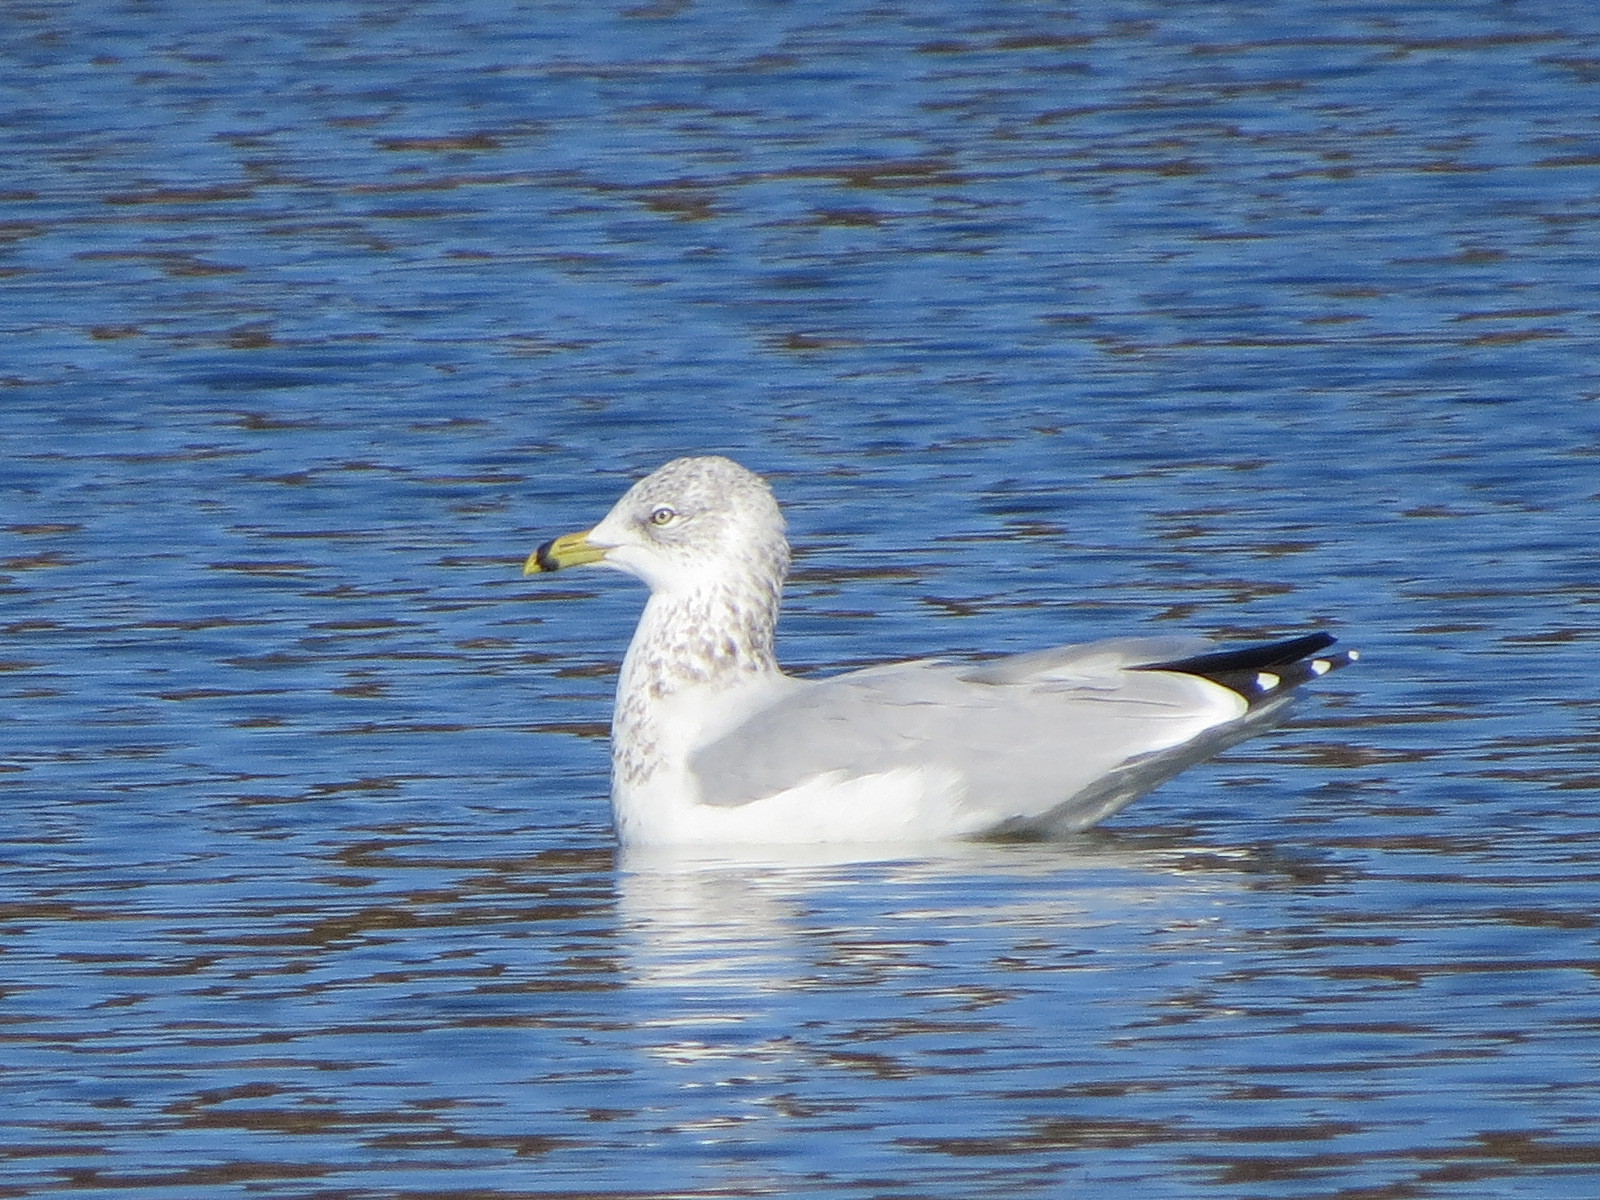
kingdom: Animalia
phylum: Chordata
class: Aves
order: Charadriiformes
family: Laridae
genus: Larus
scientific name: Larus delawarensis
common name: Ring-billed gull
